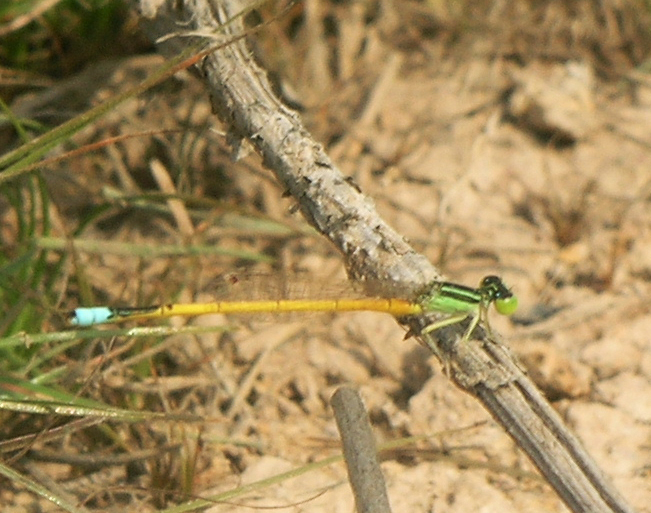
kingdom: Animalia
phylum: Arthropoda
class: Insecta
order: Odonata
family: Coenagrionidae
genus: Ischnura
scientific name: Ischnura rubilio
